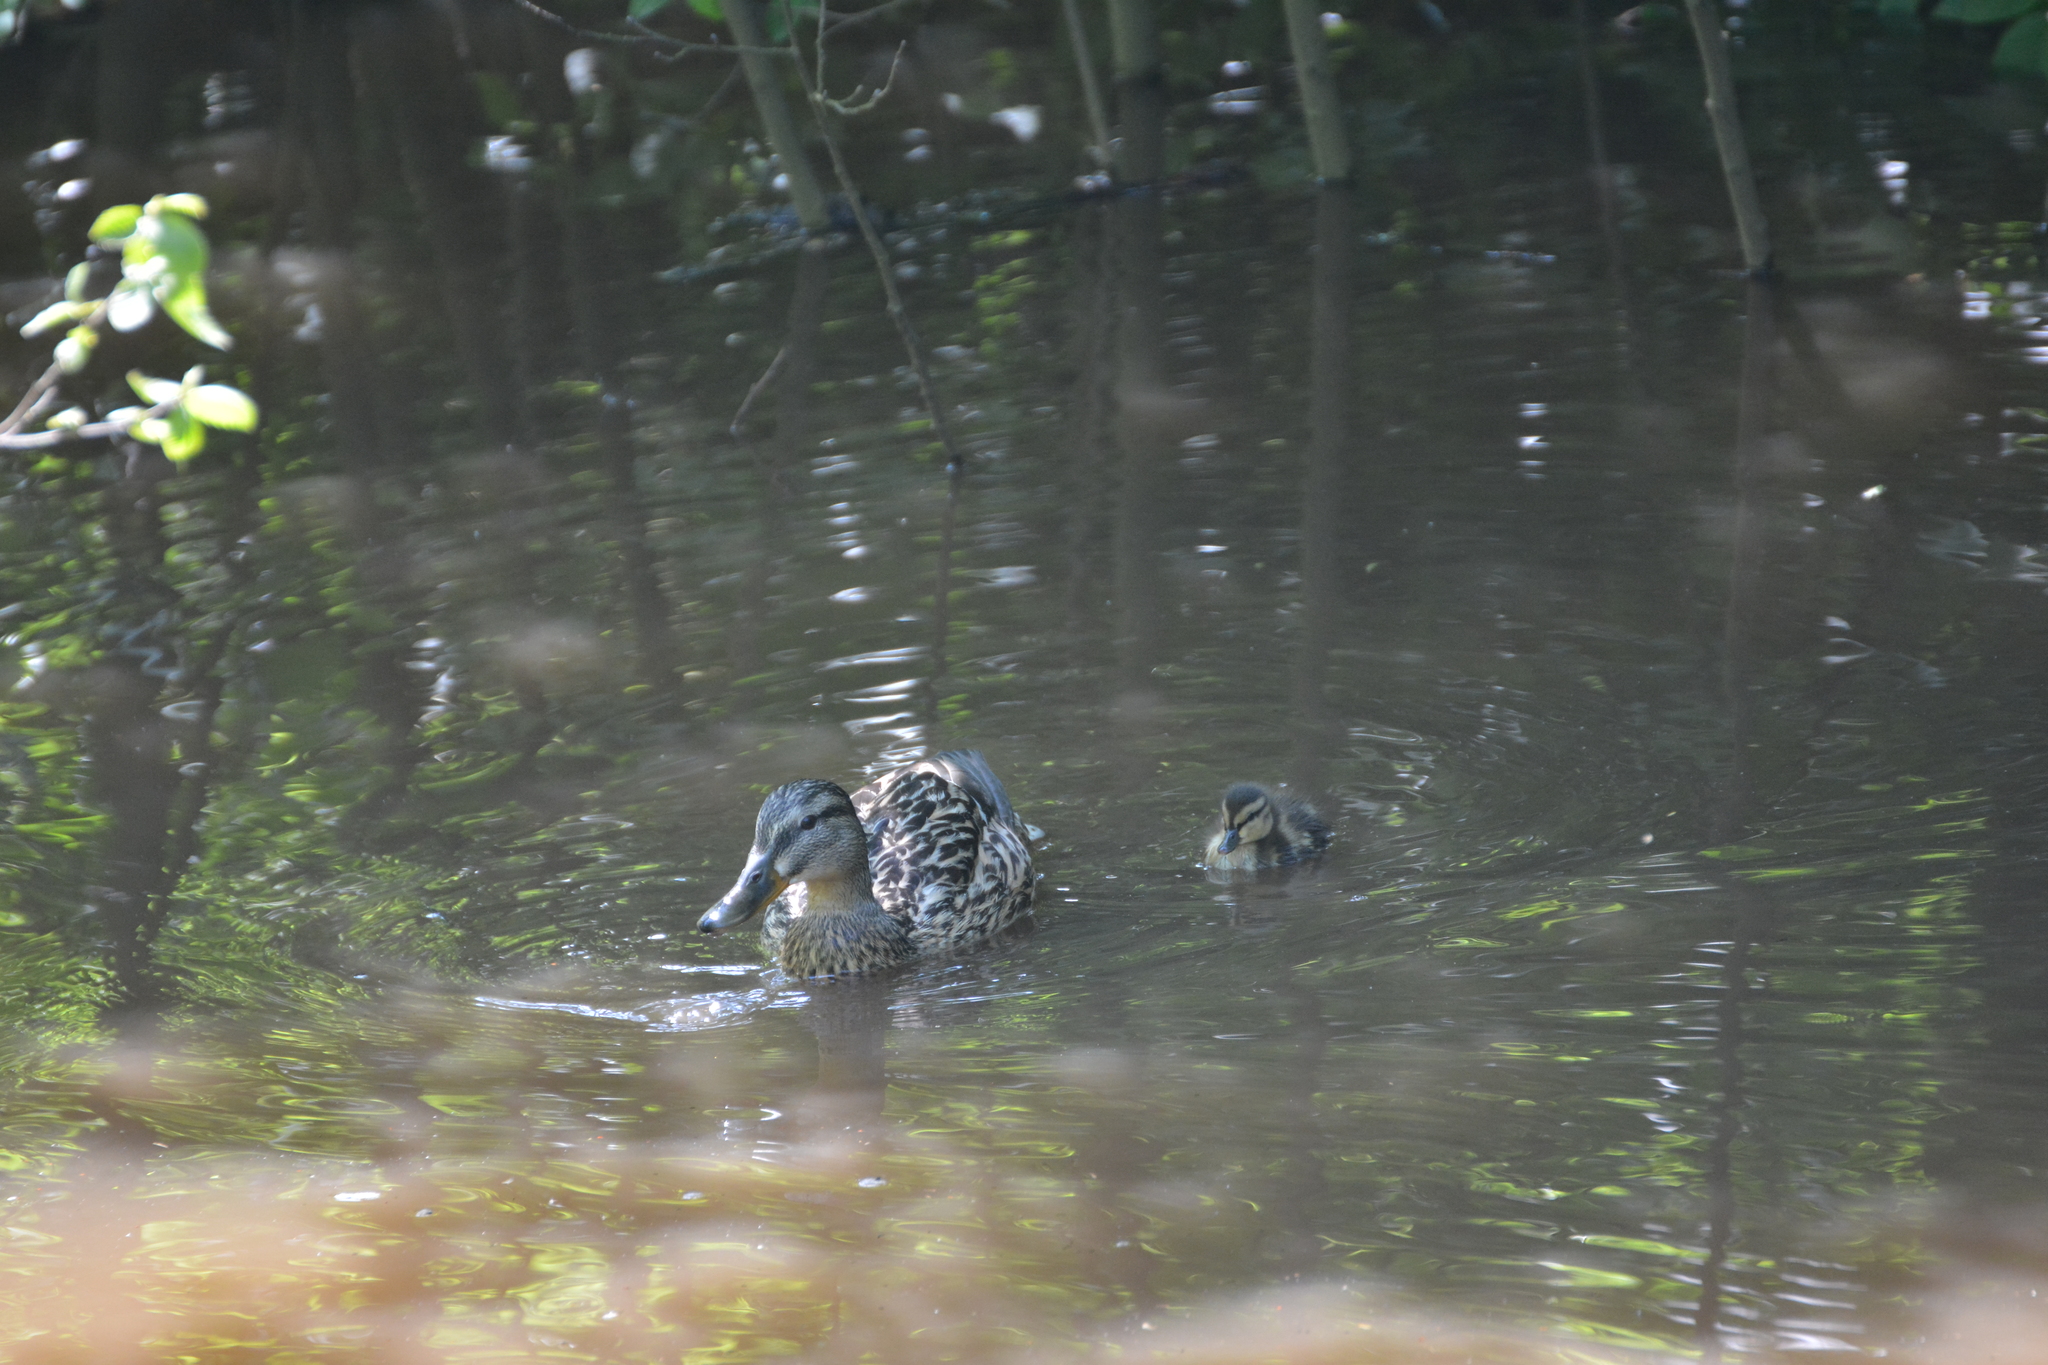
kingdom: Animalia
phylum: Chordata
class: Aves
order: Anseriformes
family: Anatidae
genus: Anas
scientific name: Anas platyrhynchos
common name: Mallard
